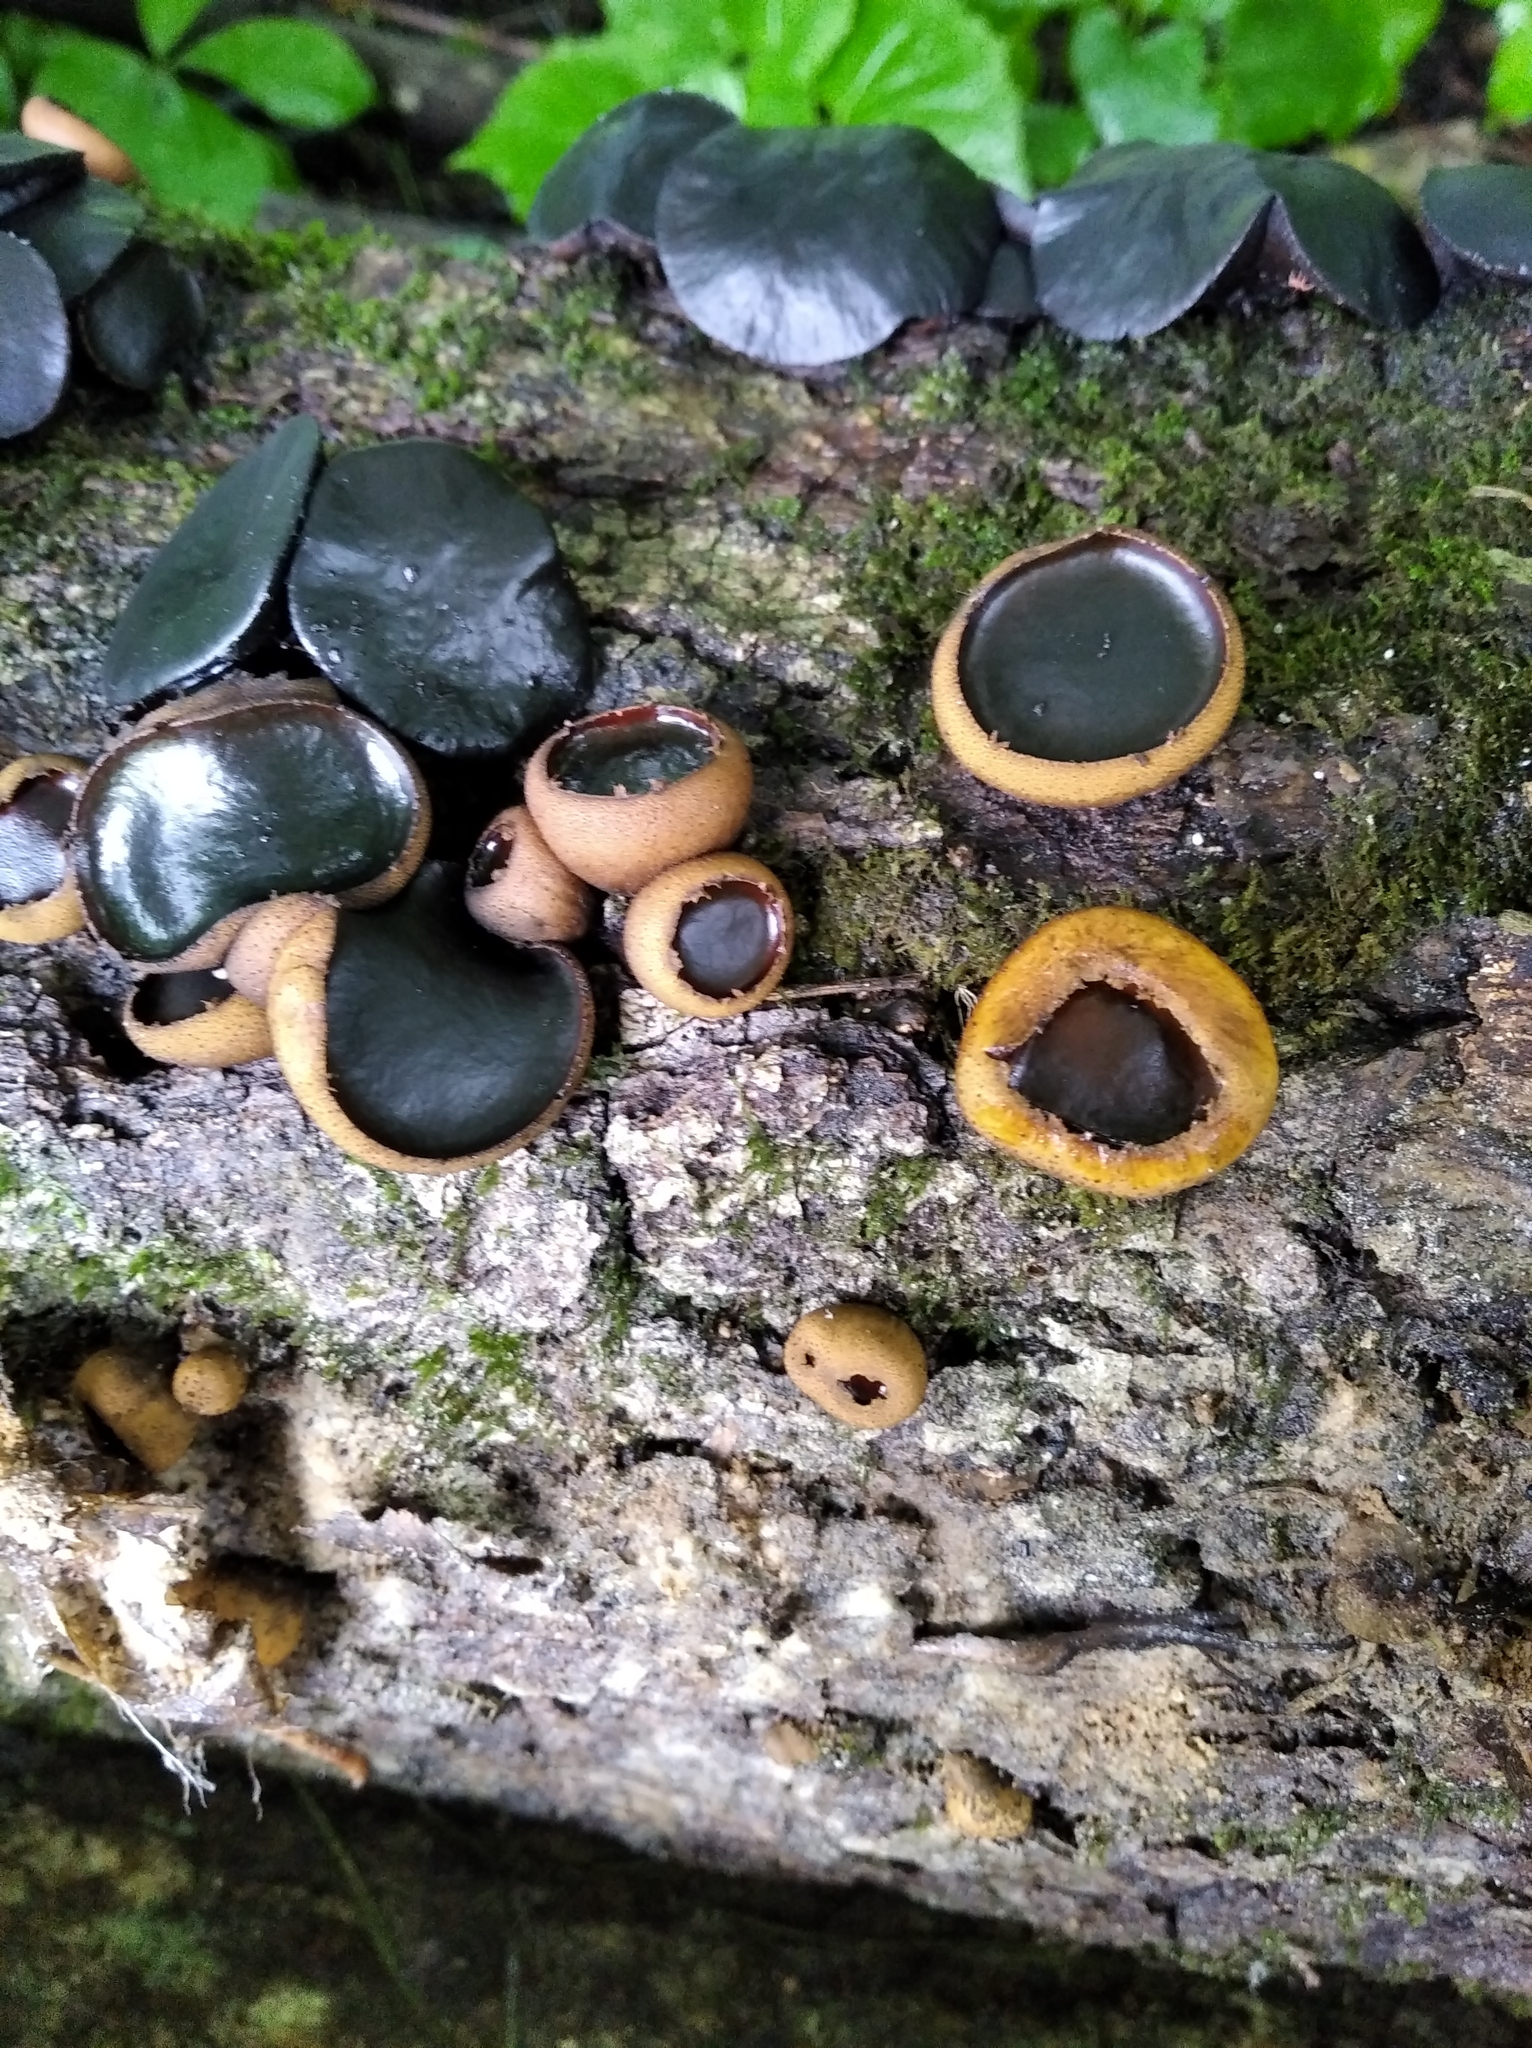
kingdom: Fungi
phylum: Ascomycota
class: Leotiomycetes
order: Phacidiales
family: Phacidiaceae
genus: Bulgaria
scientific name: Bulgaria inquinans
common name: Black bulgar
